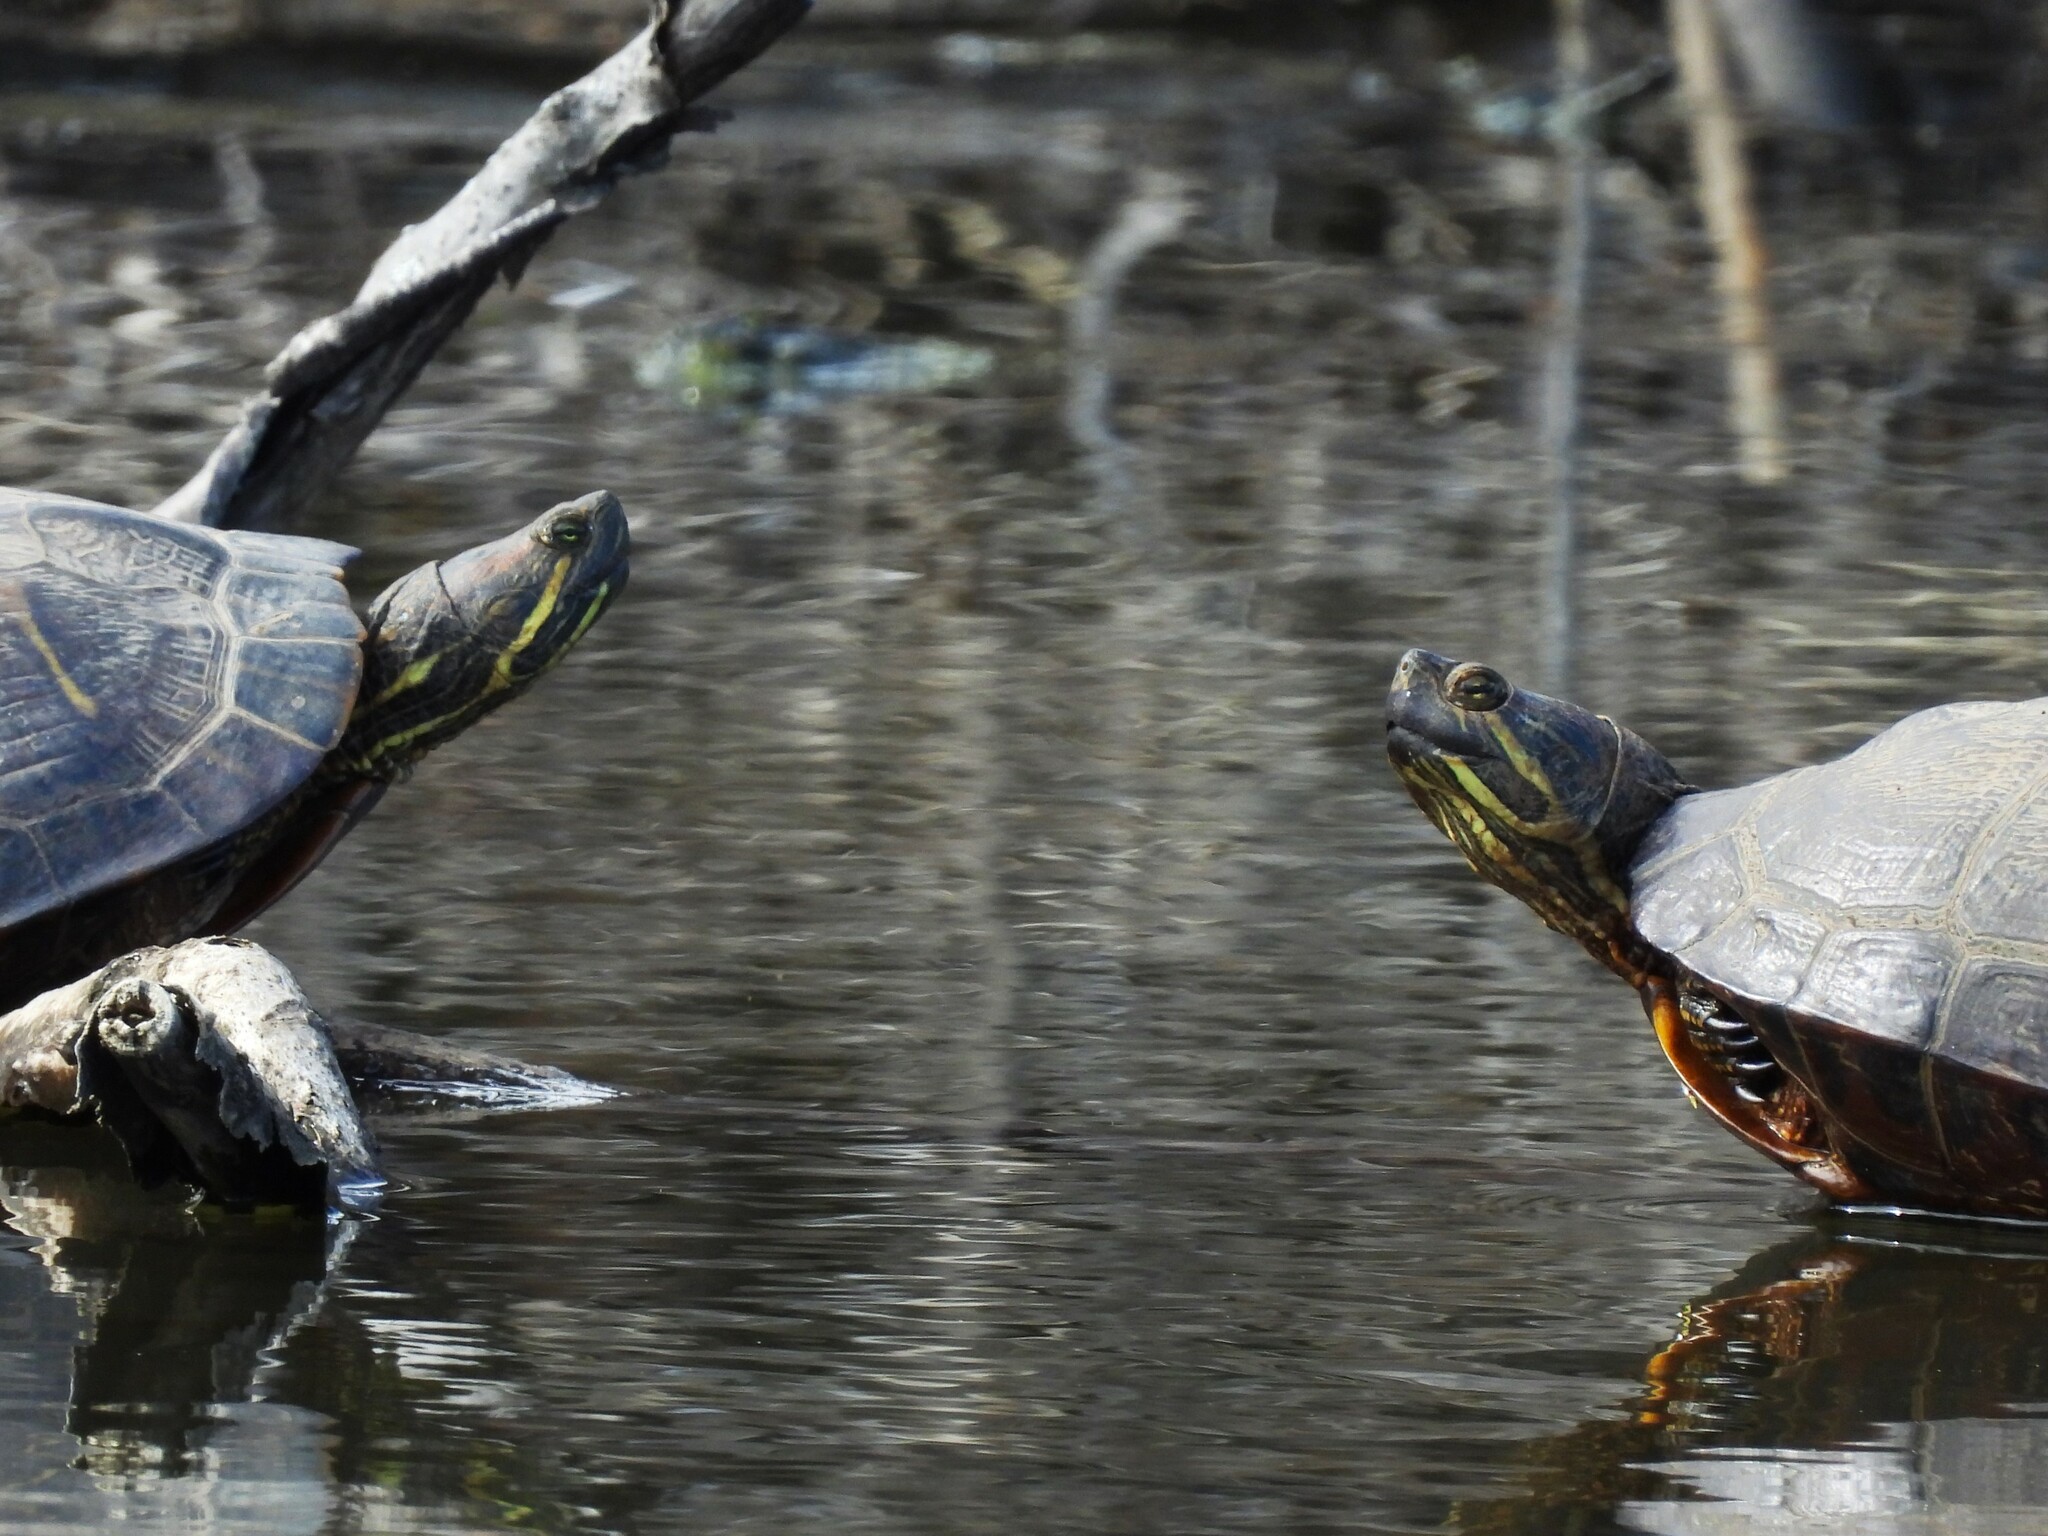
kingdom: Animalia
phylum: Chordata
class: Testudines
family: Emydidae
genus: Trachemys
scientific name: Trachemys scripta
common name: Slider
